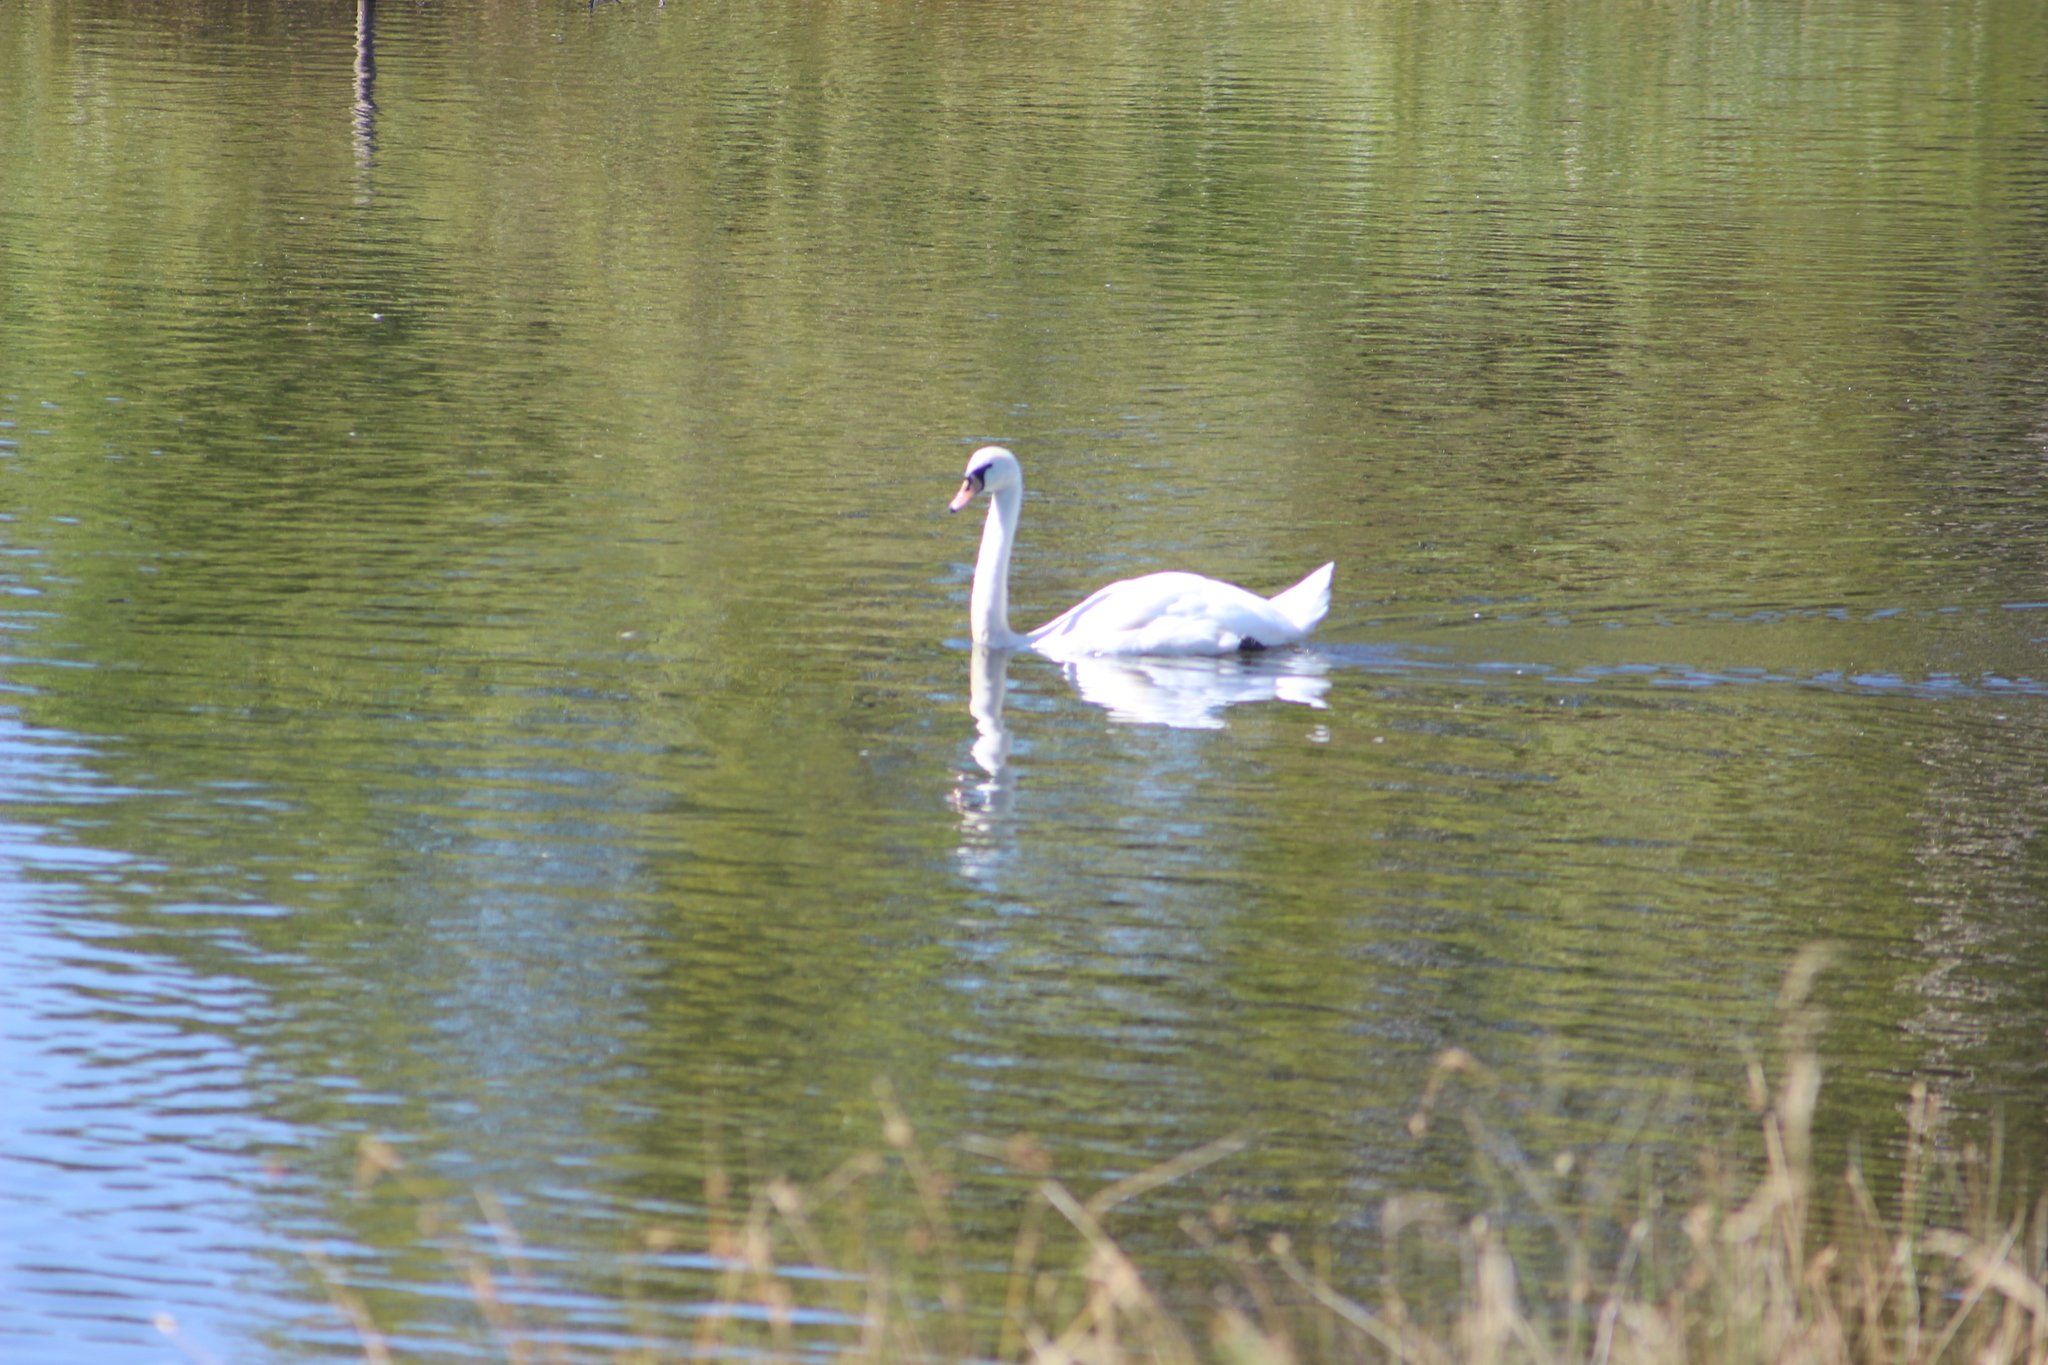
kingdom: Animalia
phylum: Chordata
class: Aves
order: Anseriformes
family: Anatidae
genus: Cygnus
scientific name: Cygnus olor
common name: Mute swan
